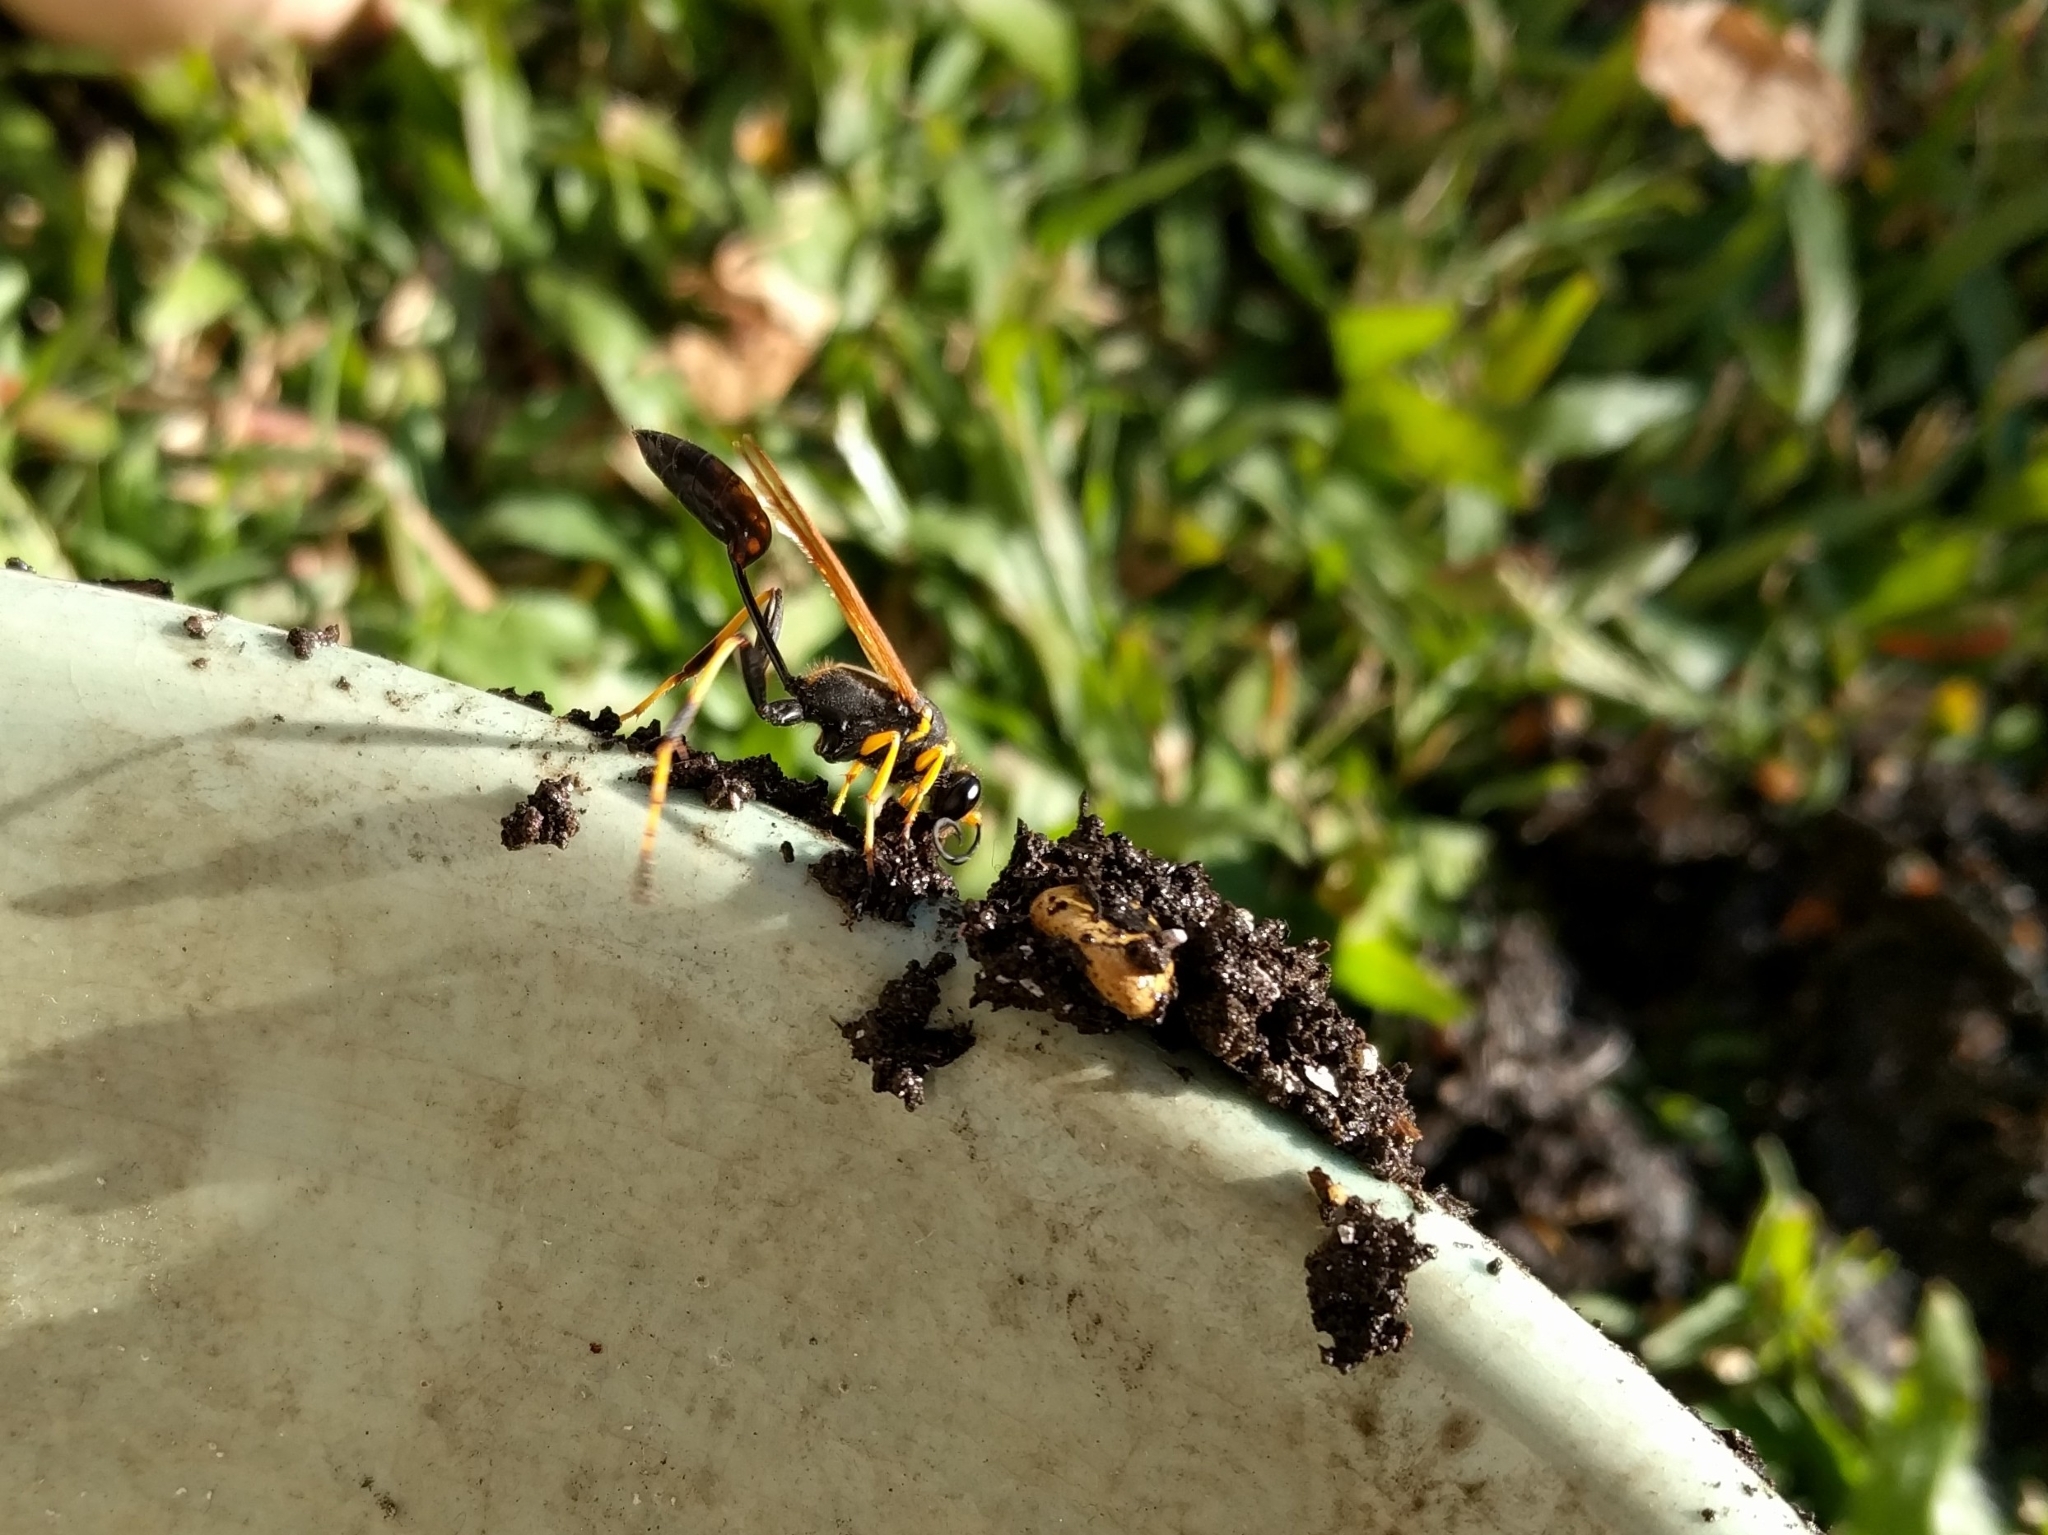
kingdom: Animalia
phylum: Arthropoda
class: Insecta
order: Hymenoptera
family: Sphecidae
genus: Sceliphron
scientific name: Sceliphron caementarium
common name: Mud dauber
